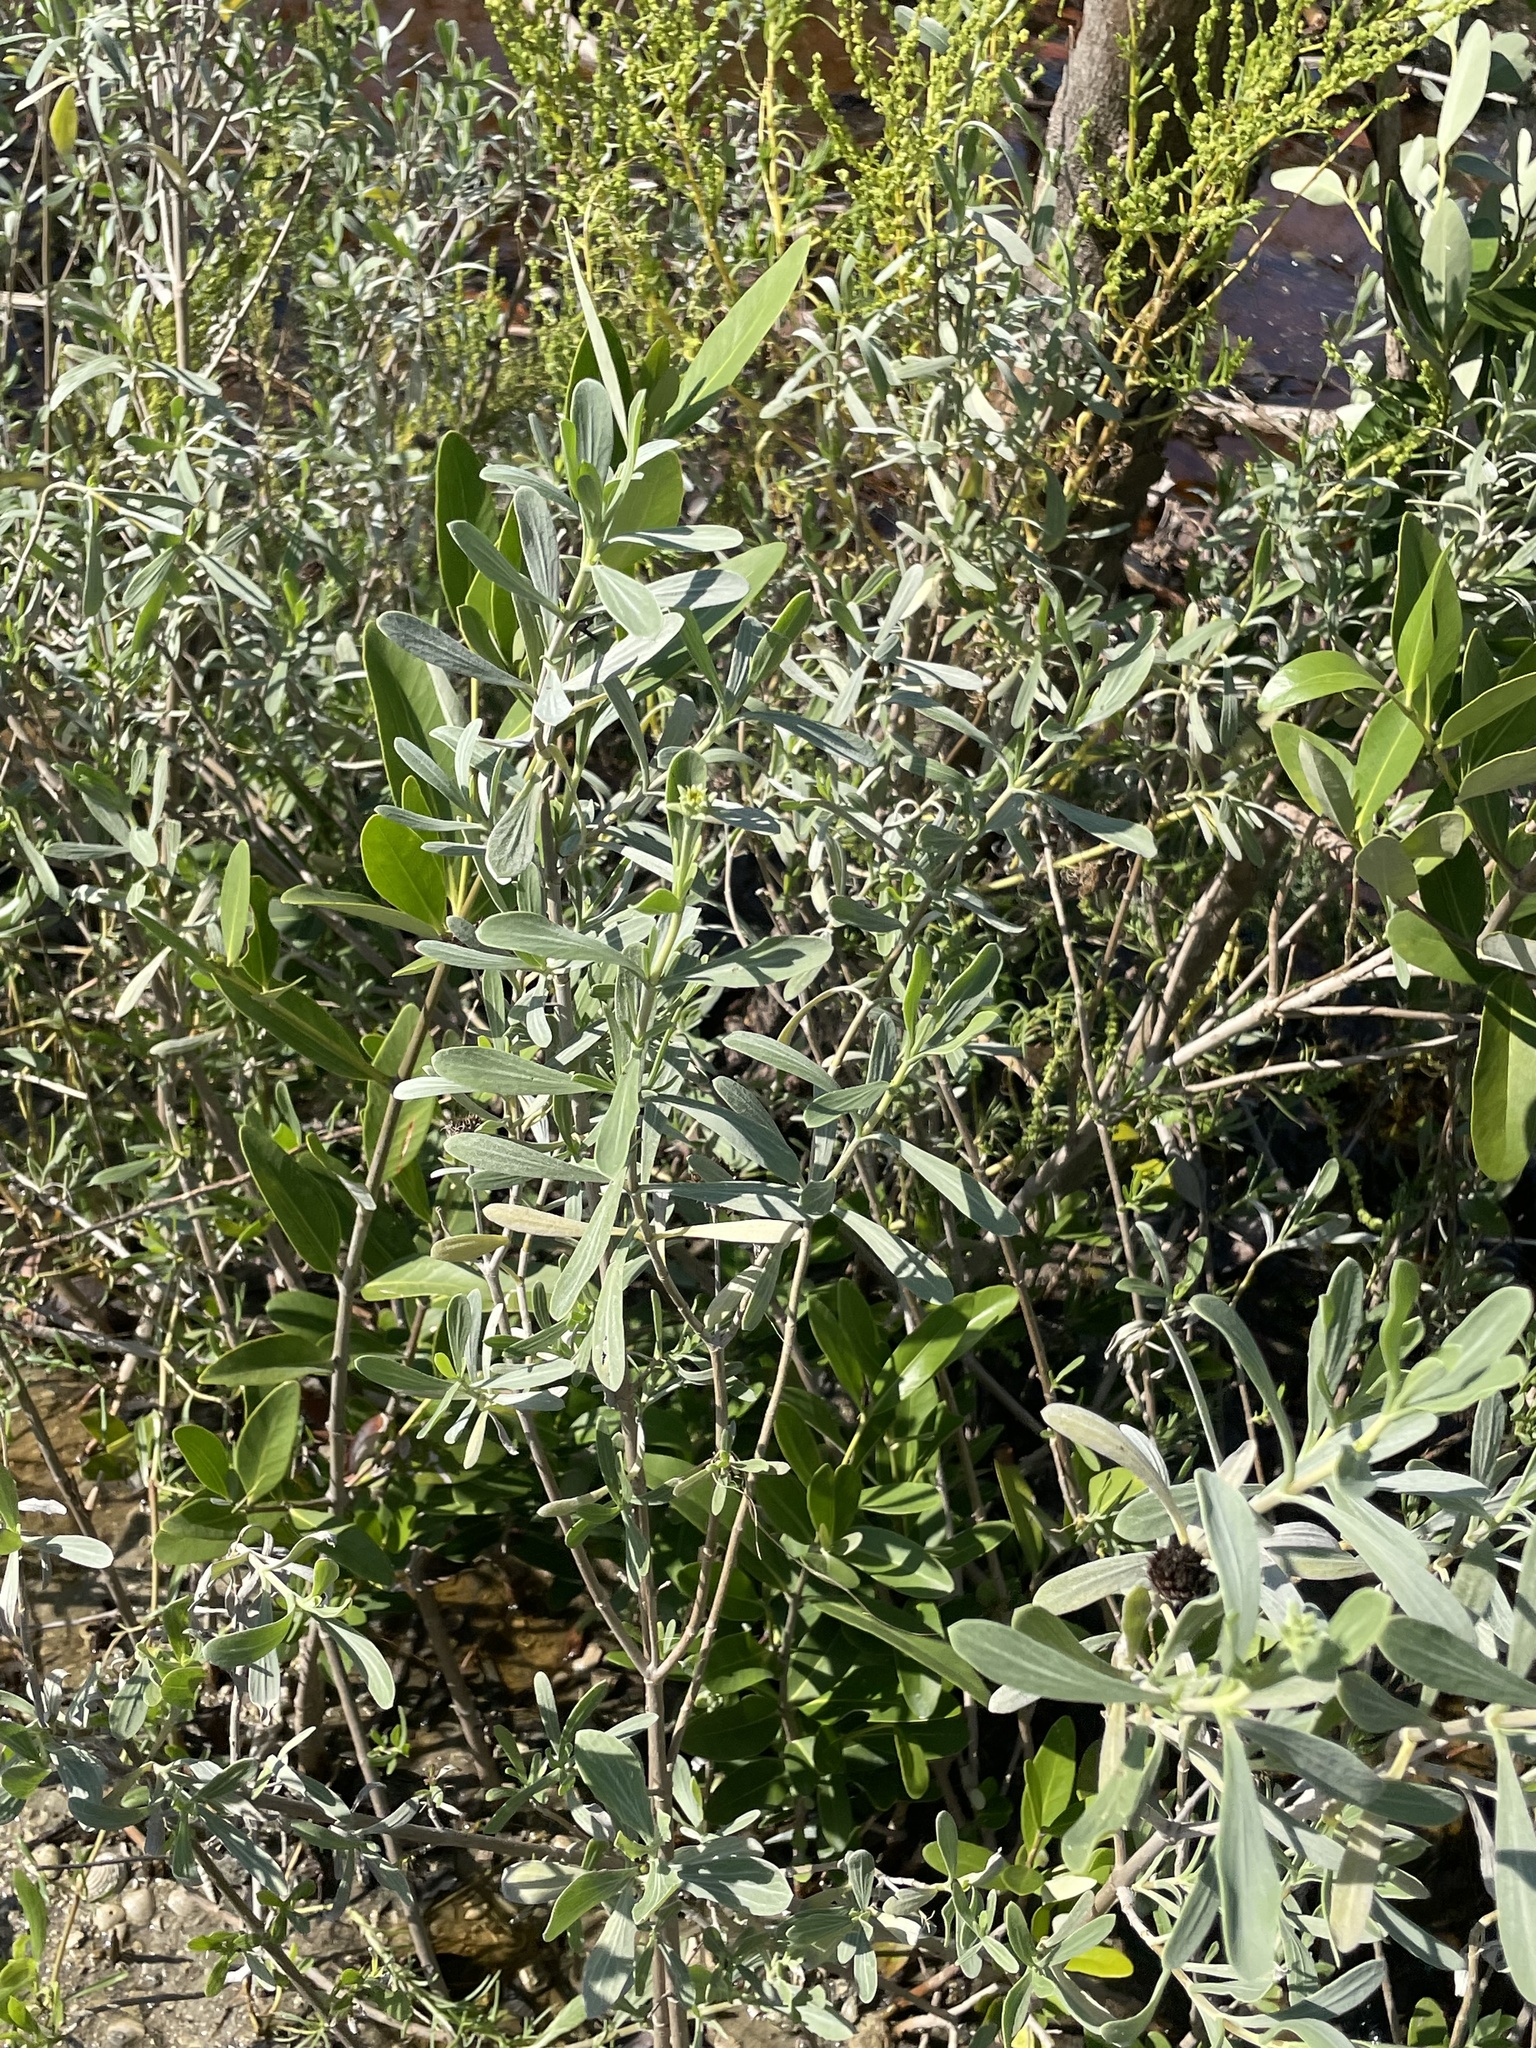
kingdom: Plantae
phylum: Tracheophyta
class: Magnoliopsida
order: Lamiales
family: Acanthaceae
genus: Avicennia
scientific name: Avicennia germinans
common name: Black mangrove
